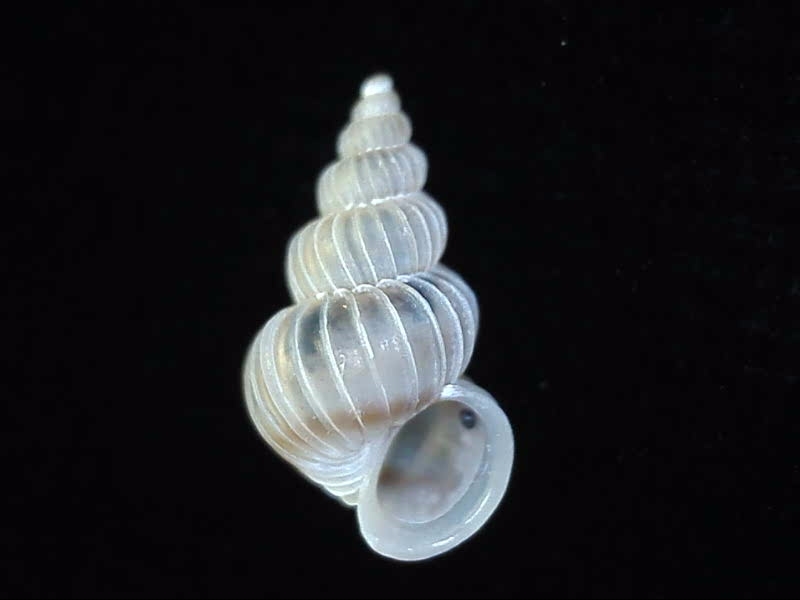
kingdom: Animalia
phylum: Mollusca
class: Gastropoda
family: Epitoniidae
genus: Epitonium
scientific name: Epitonium tenellum
